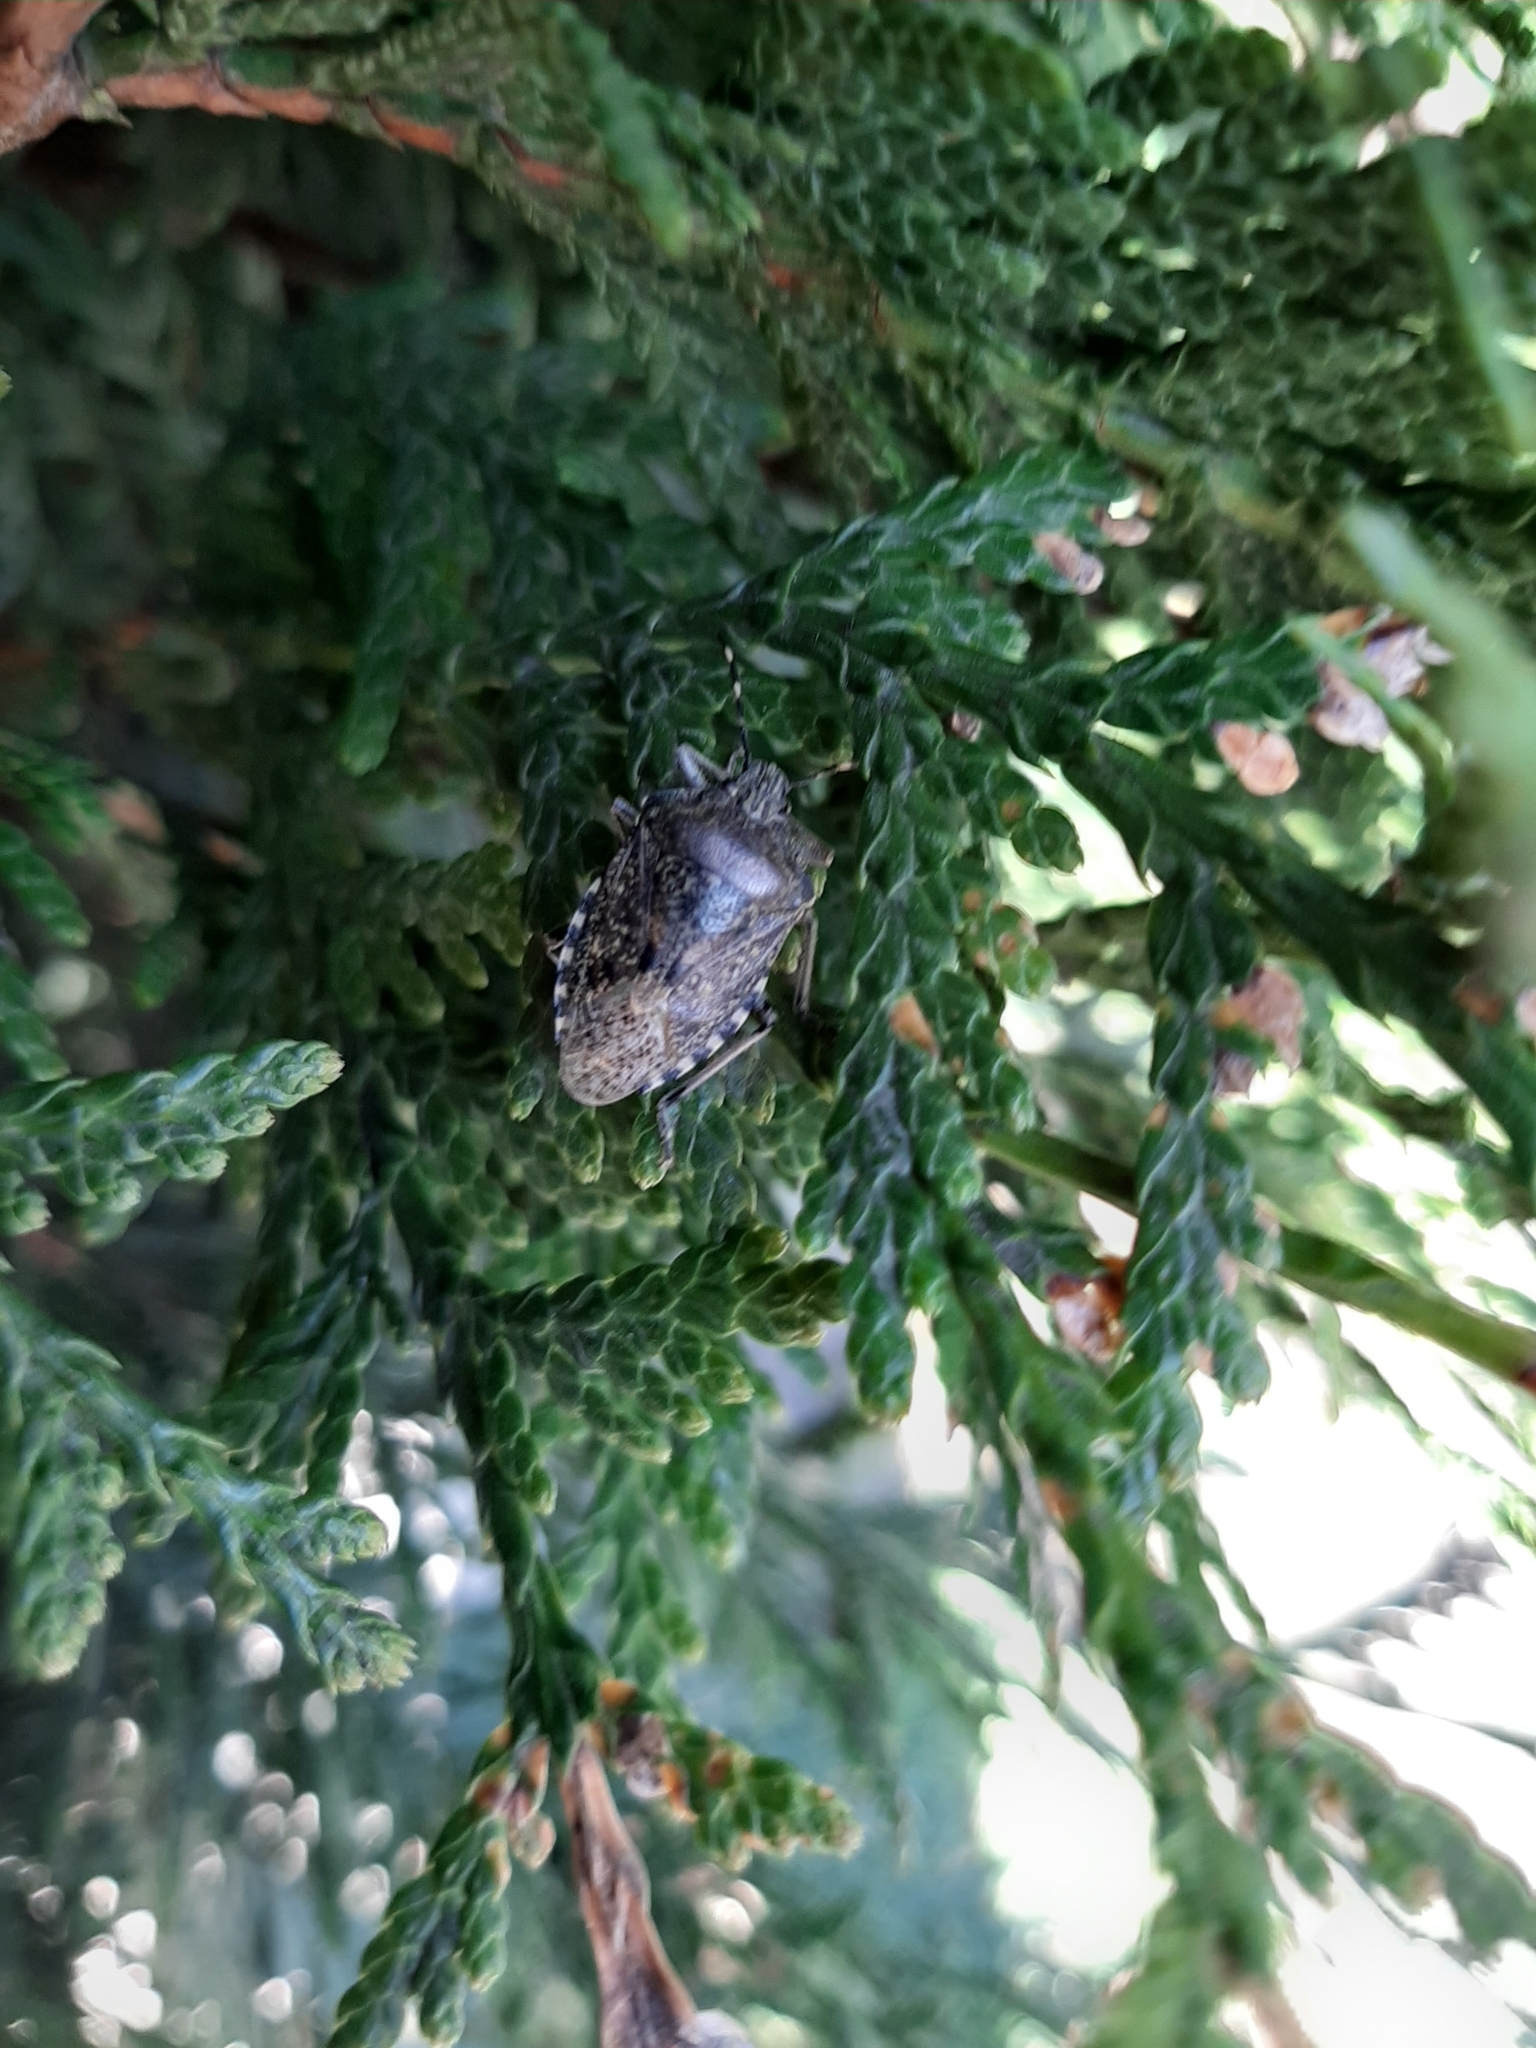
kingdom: Animalia
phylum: Arthropoda
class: Insecta
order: Hemiptera
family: Pentatomidae
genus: Rhaphigaster
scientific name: Rhaphigaster nebulosa
